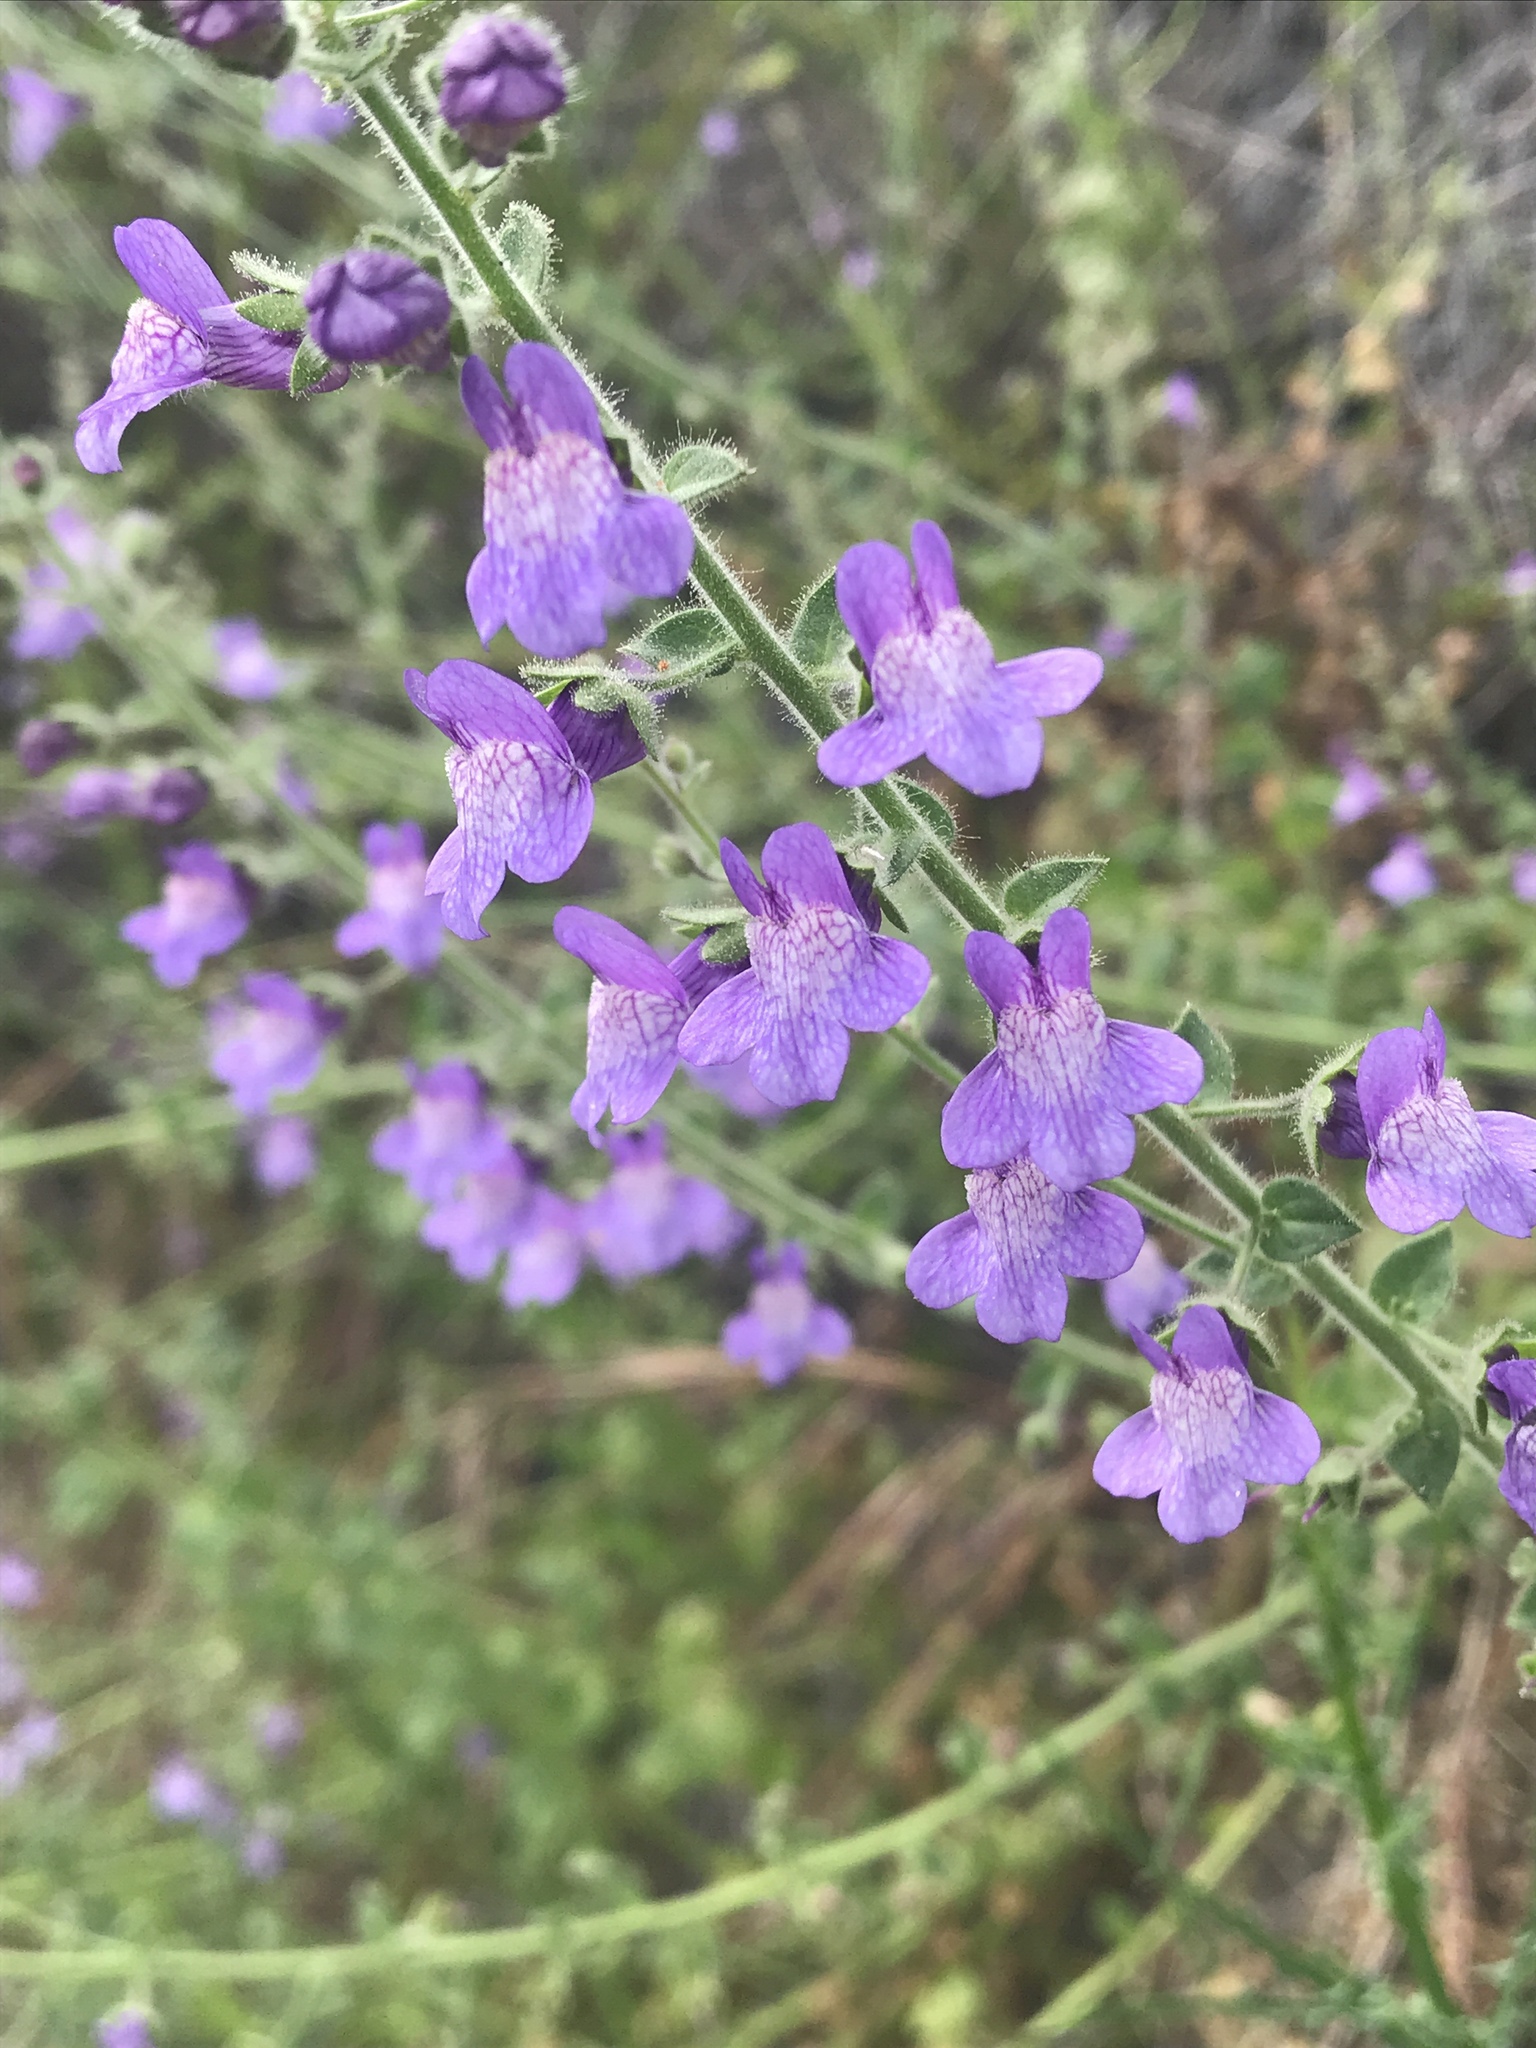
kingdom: Plantae
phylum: Tracheophyta
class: Magnoliopsida
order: Lamiales
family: Plantaginaceae
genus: Sairocarpus
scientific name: Sairocarpus nuttallianus
